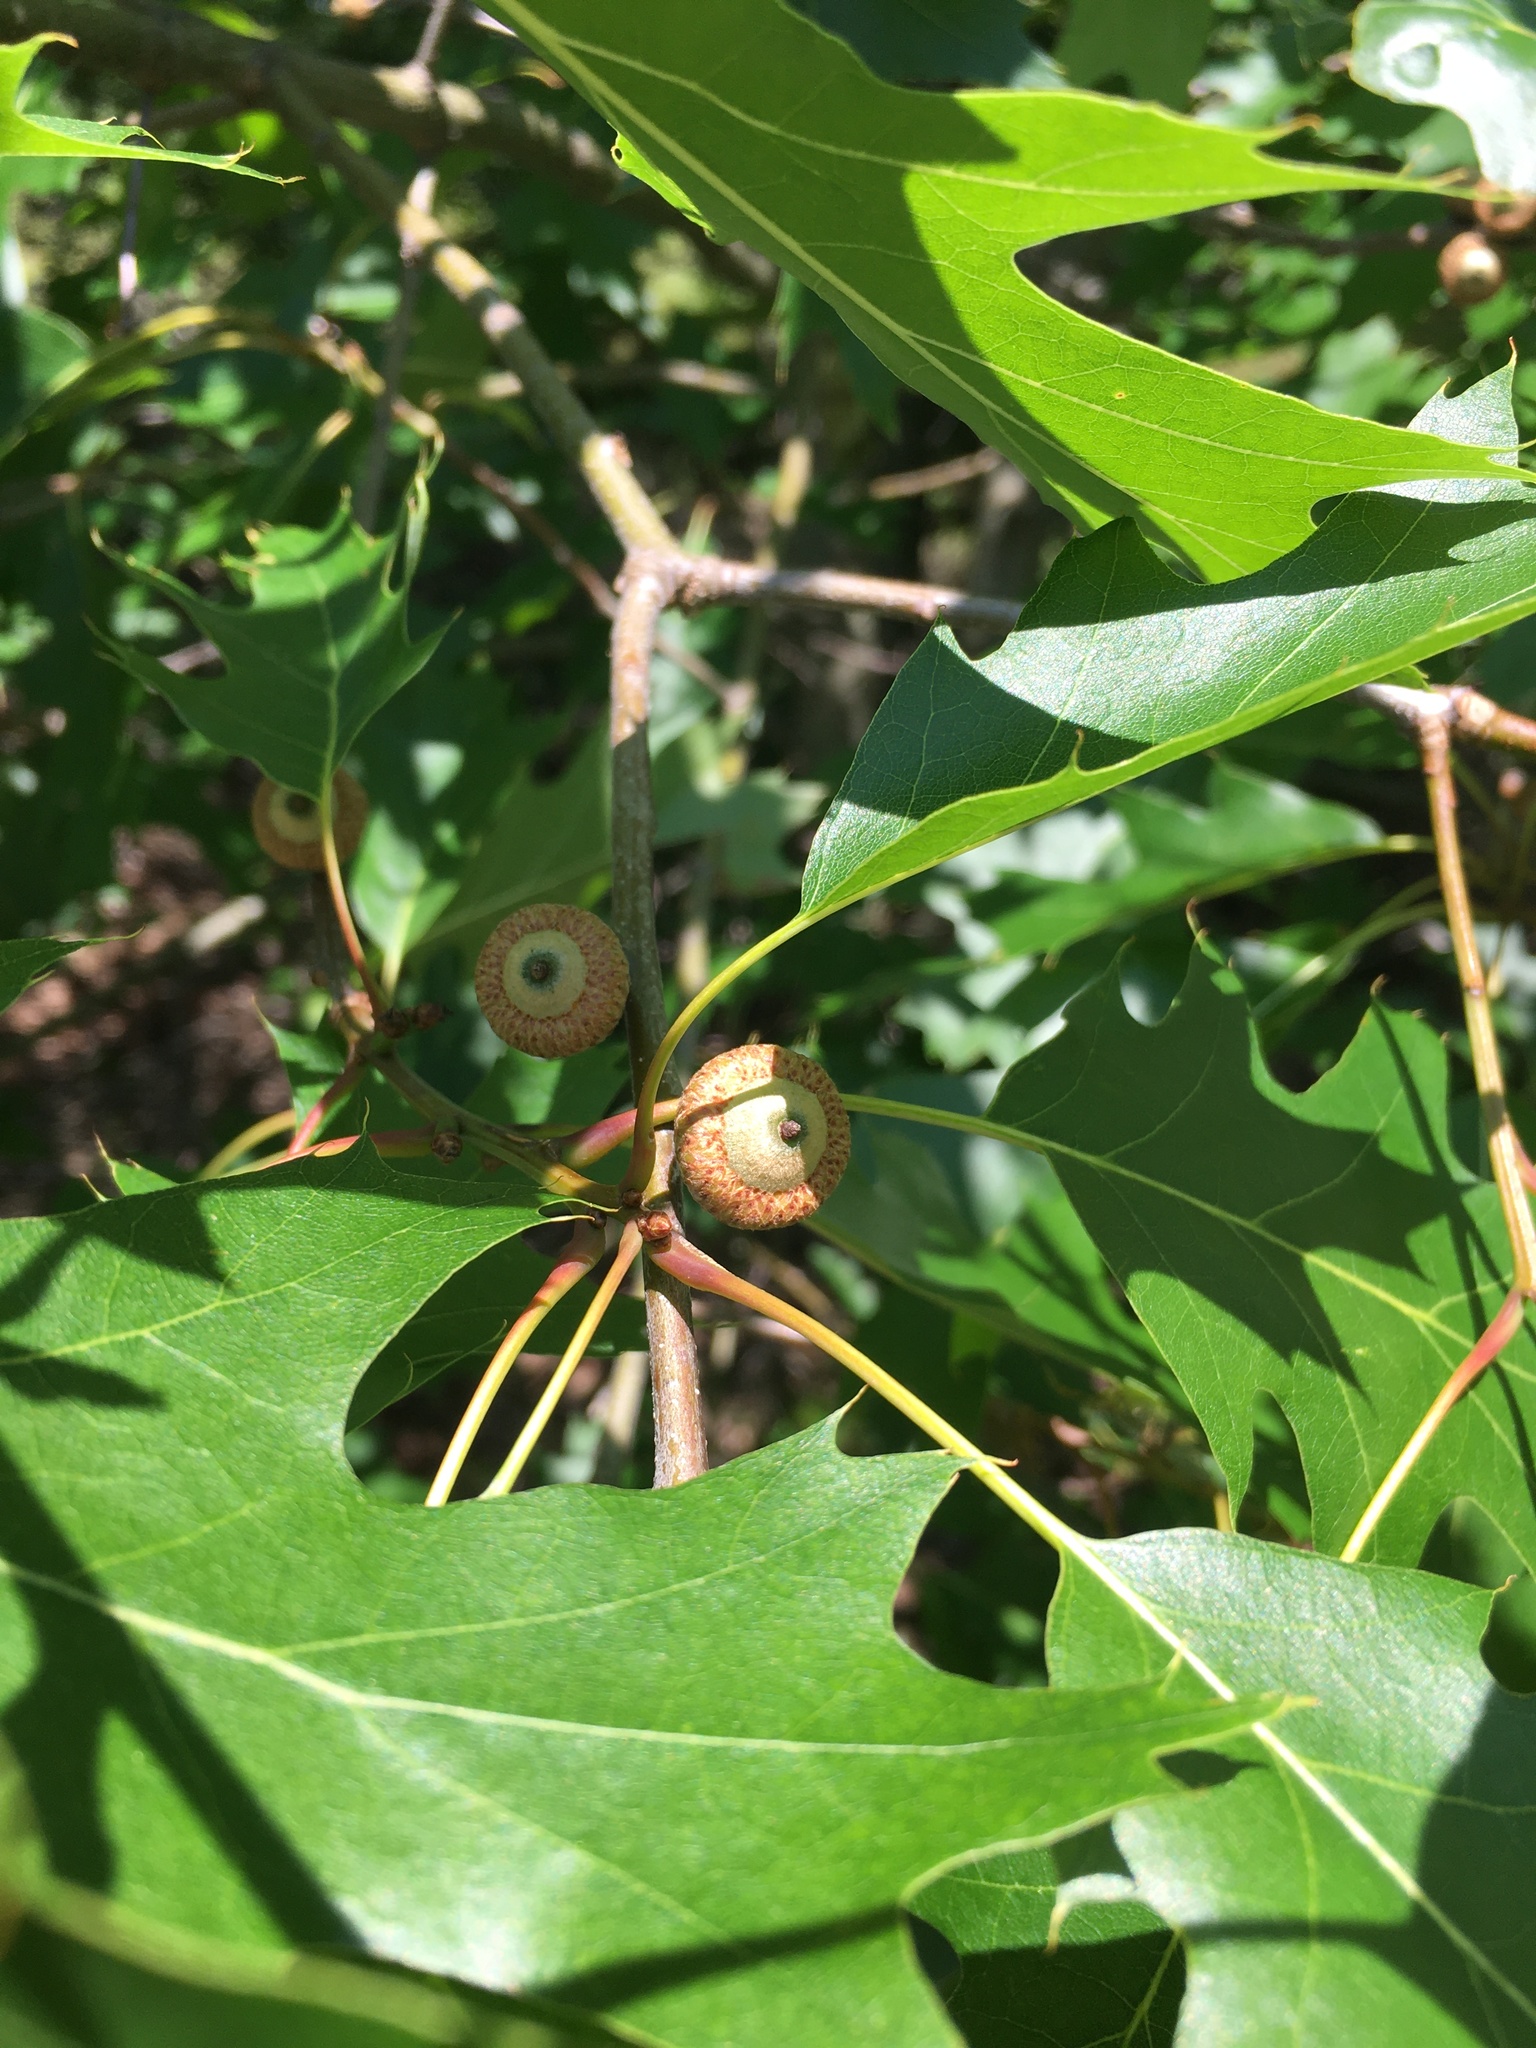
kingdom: Plantae
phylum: Tracheophyta
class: Magnoliopsida
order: Fagales
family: Fagaceae
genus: Quercus
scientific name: Quercus rubra
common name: Red oak
